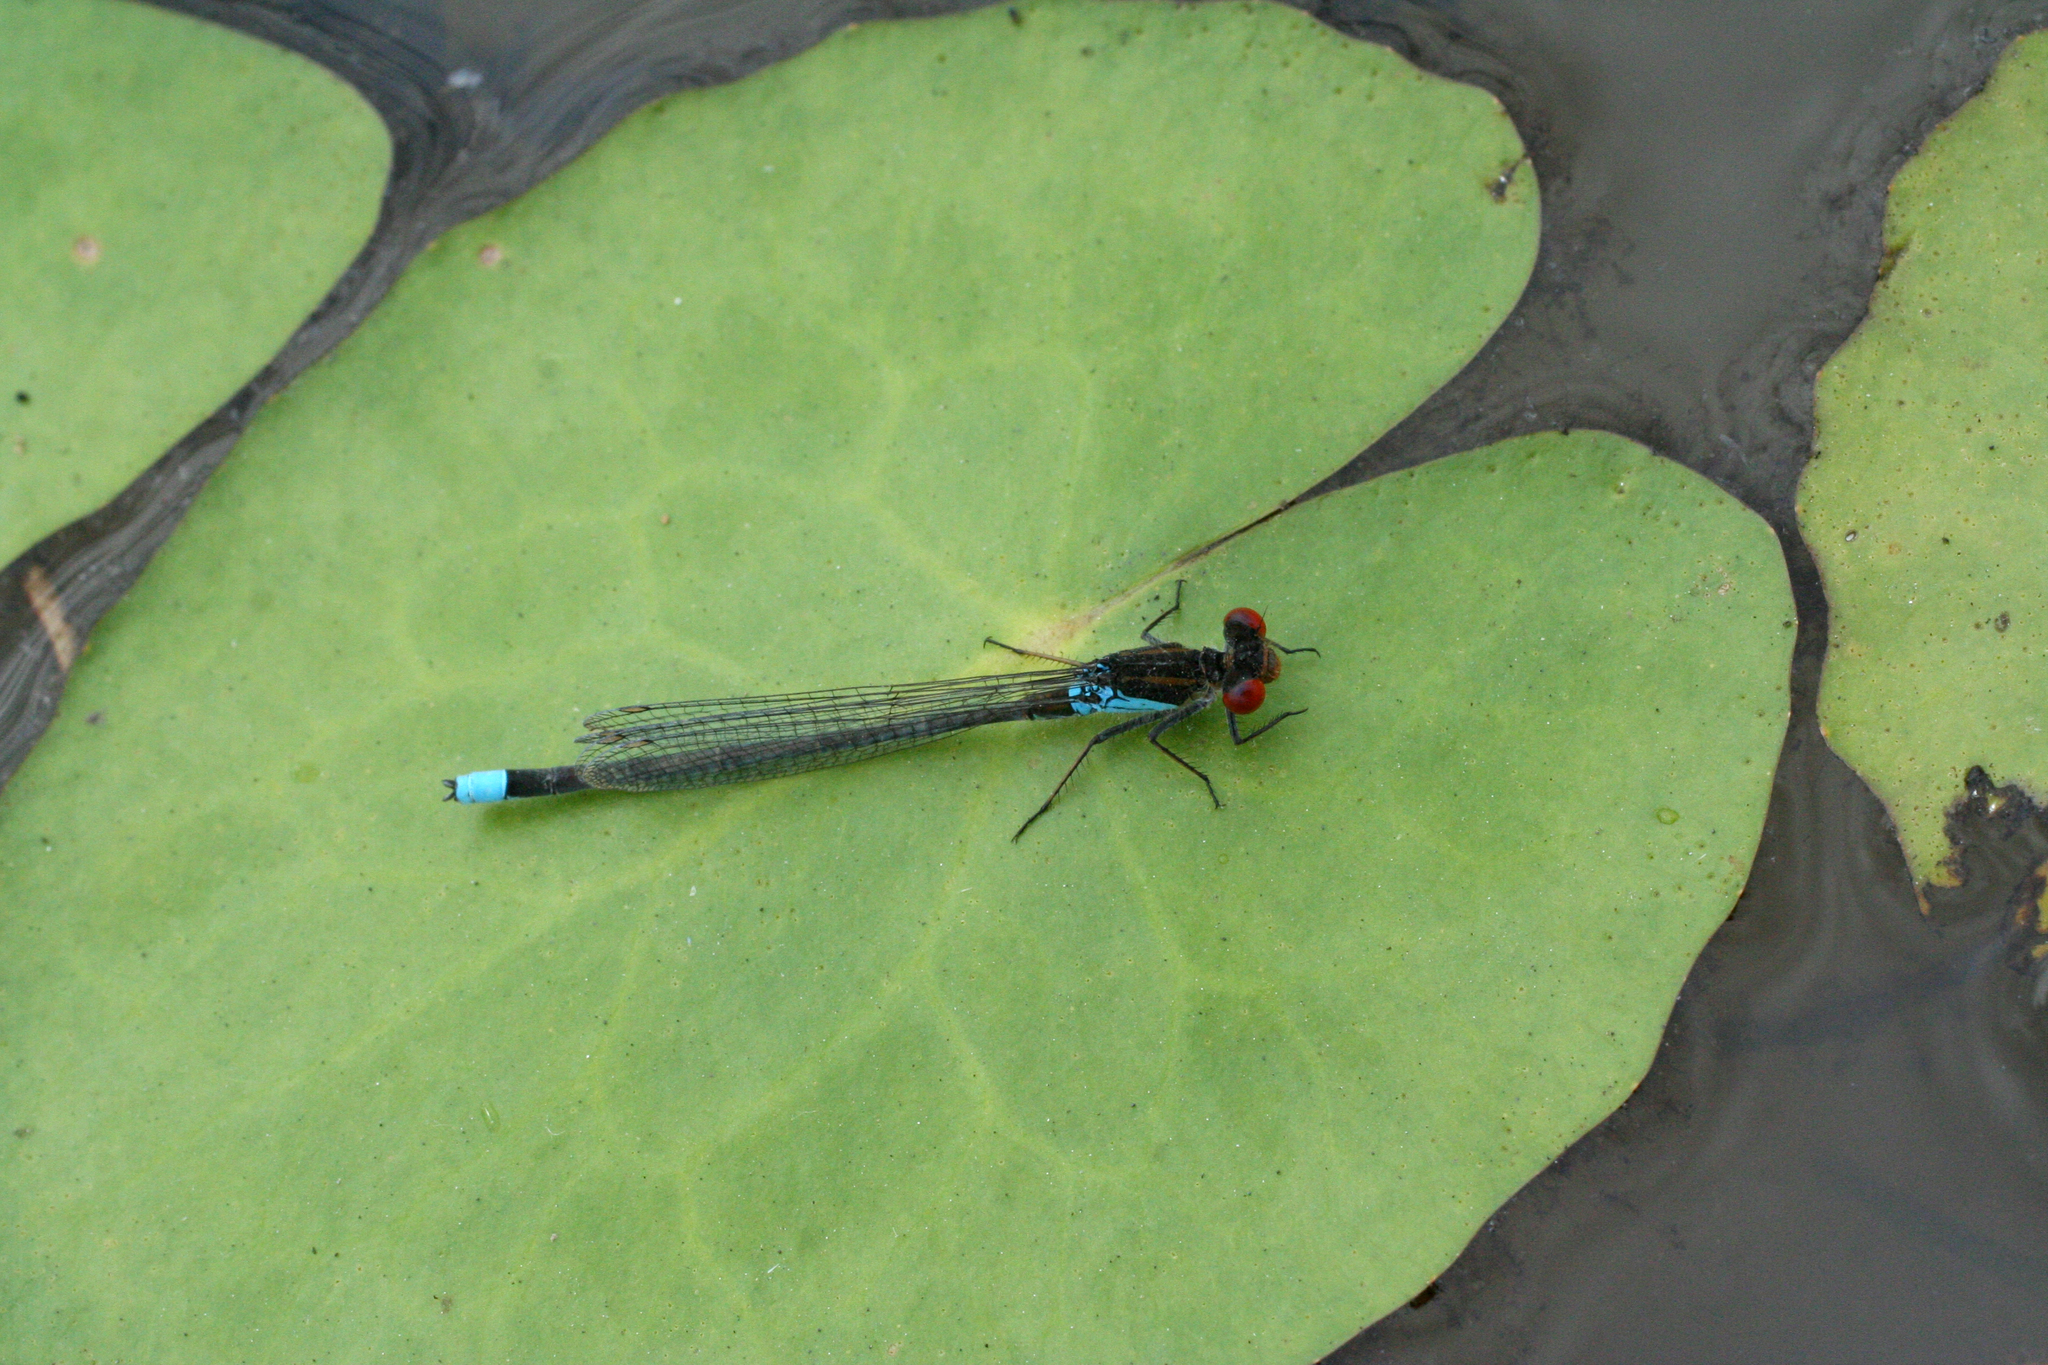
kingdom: Animalia
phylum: Arthropoda
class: Insecta
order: Odonata
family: Coenagrionidae
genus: Erythromma
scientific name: Erythromma najas
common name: Red-eyed damselfly
